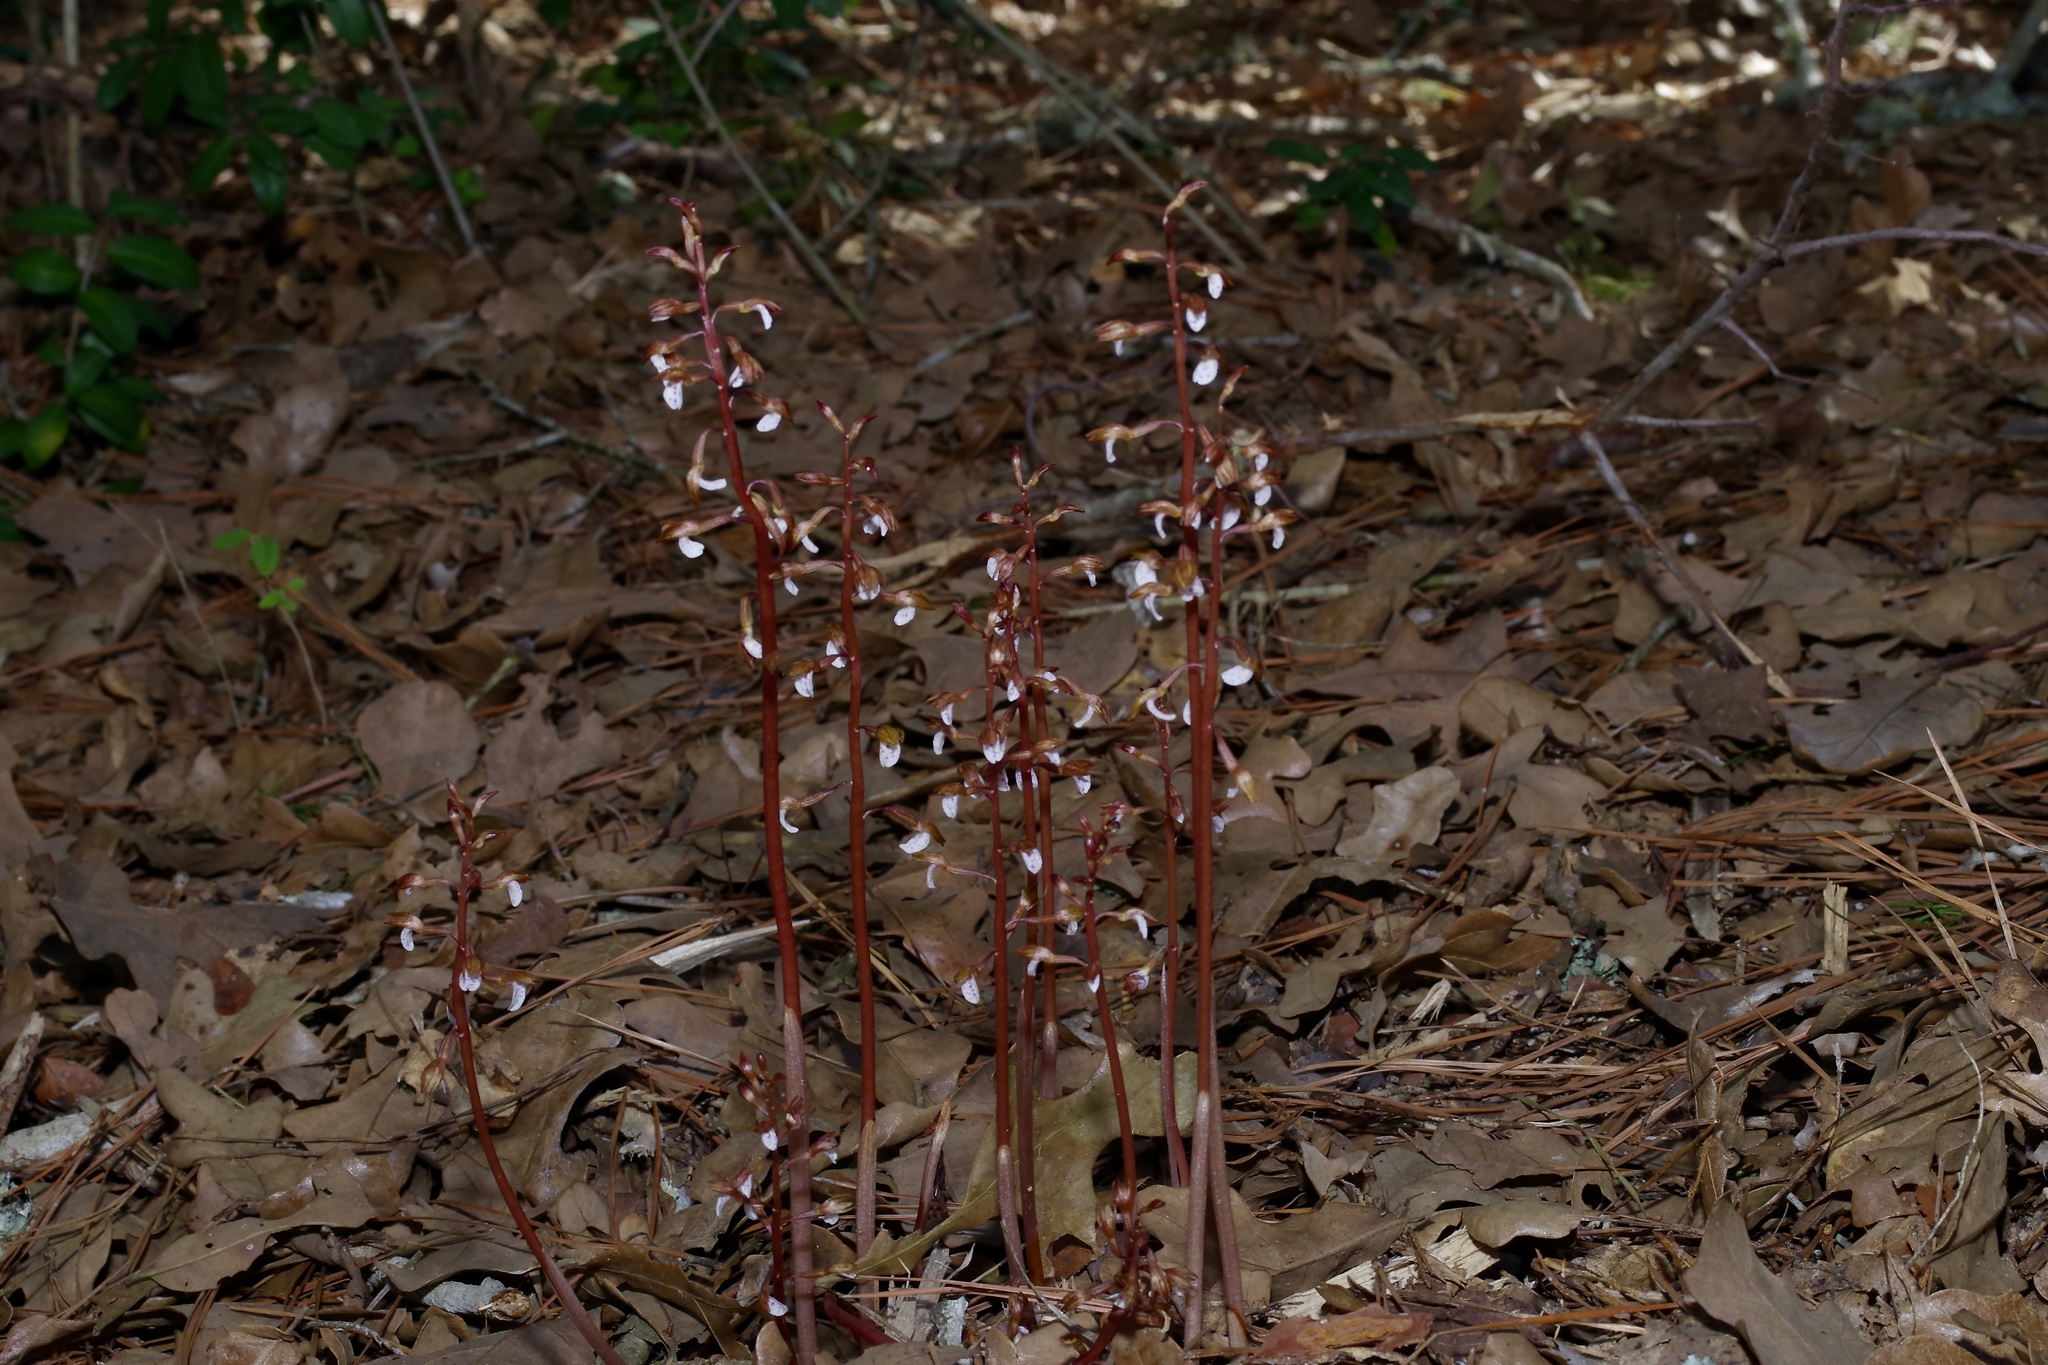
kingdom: Plantae
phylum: Tracheophyta
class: Liliopsida
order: Asparagales
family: Orchidaceae
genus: Corallorhiza
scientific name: Corallorhiza wisteriana
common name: Spring coralroot
